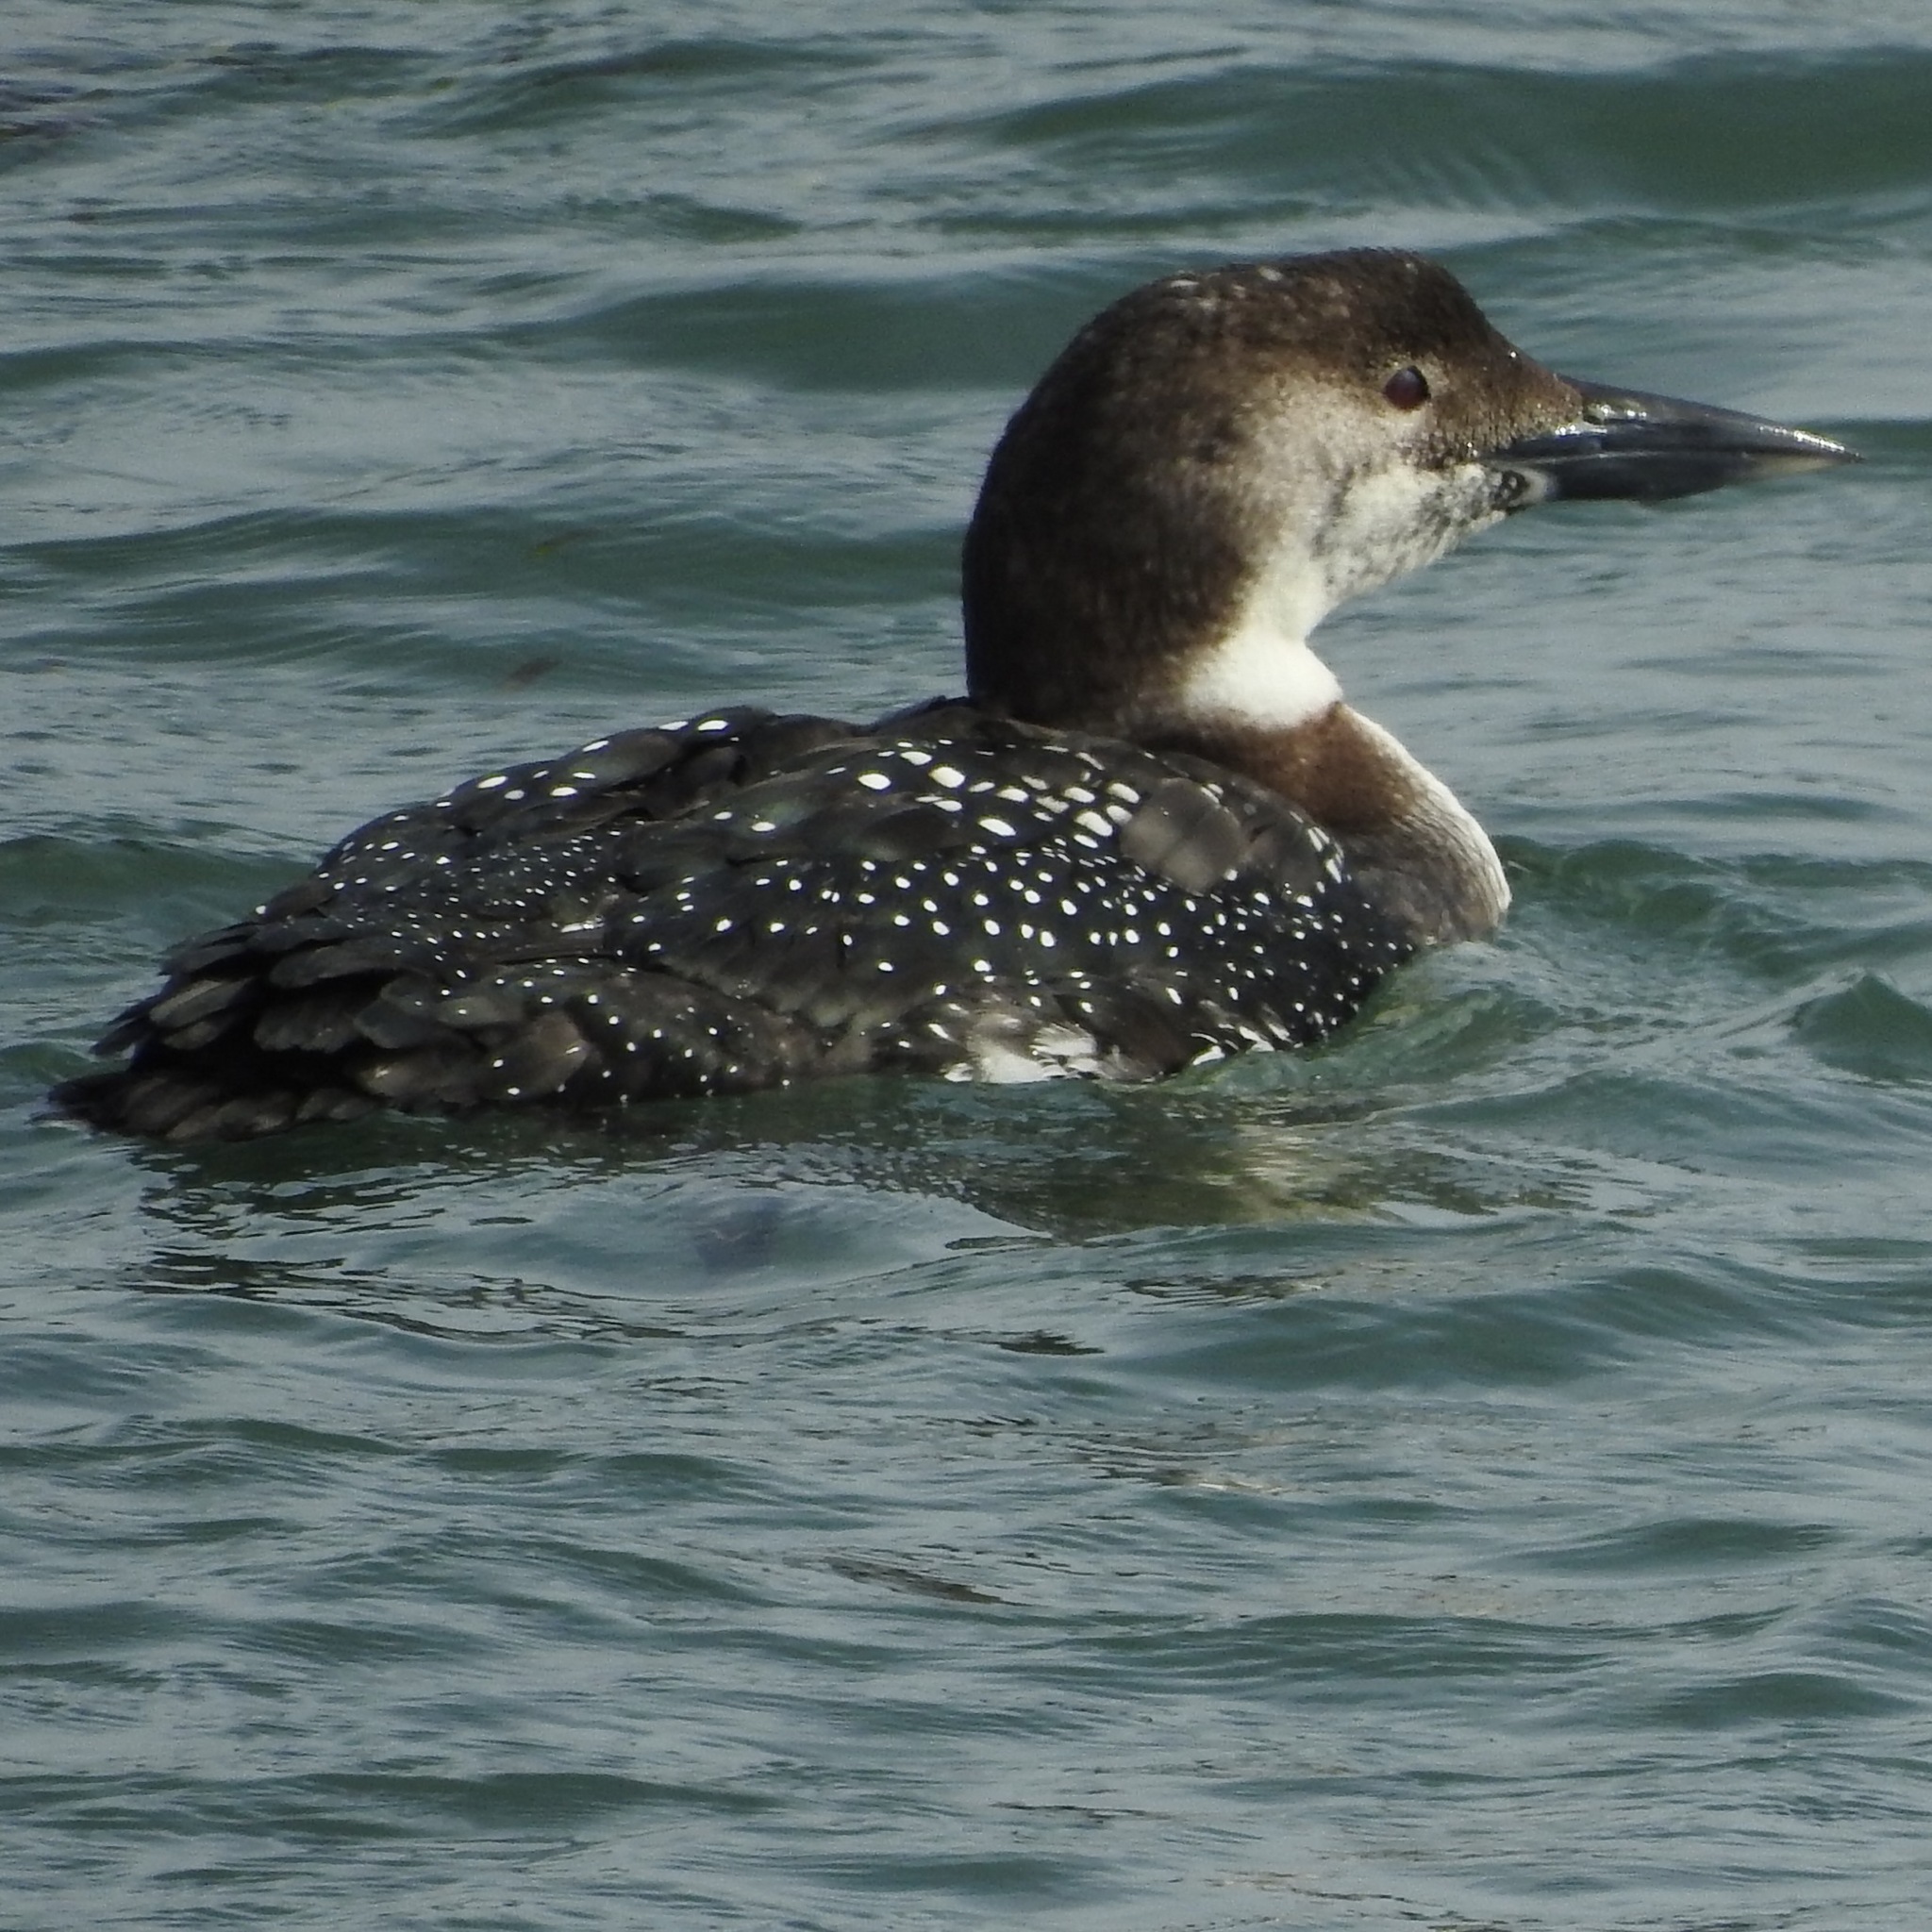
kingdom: Animalia
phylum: Chordata
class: Aves
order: Gaviiformes
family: Gaviidae
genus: Gavia
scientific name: Gavia immer
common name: Common loon
